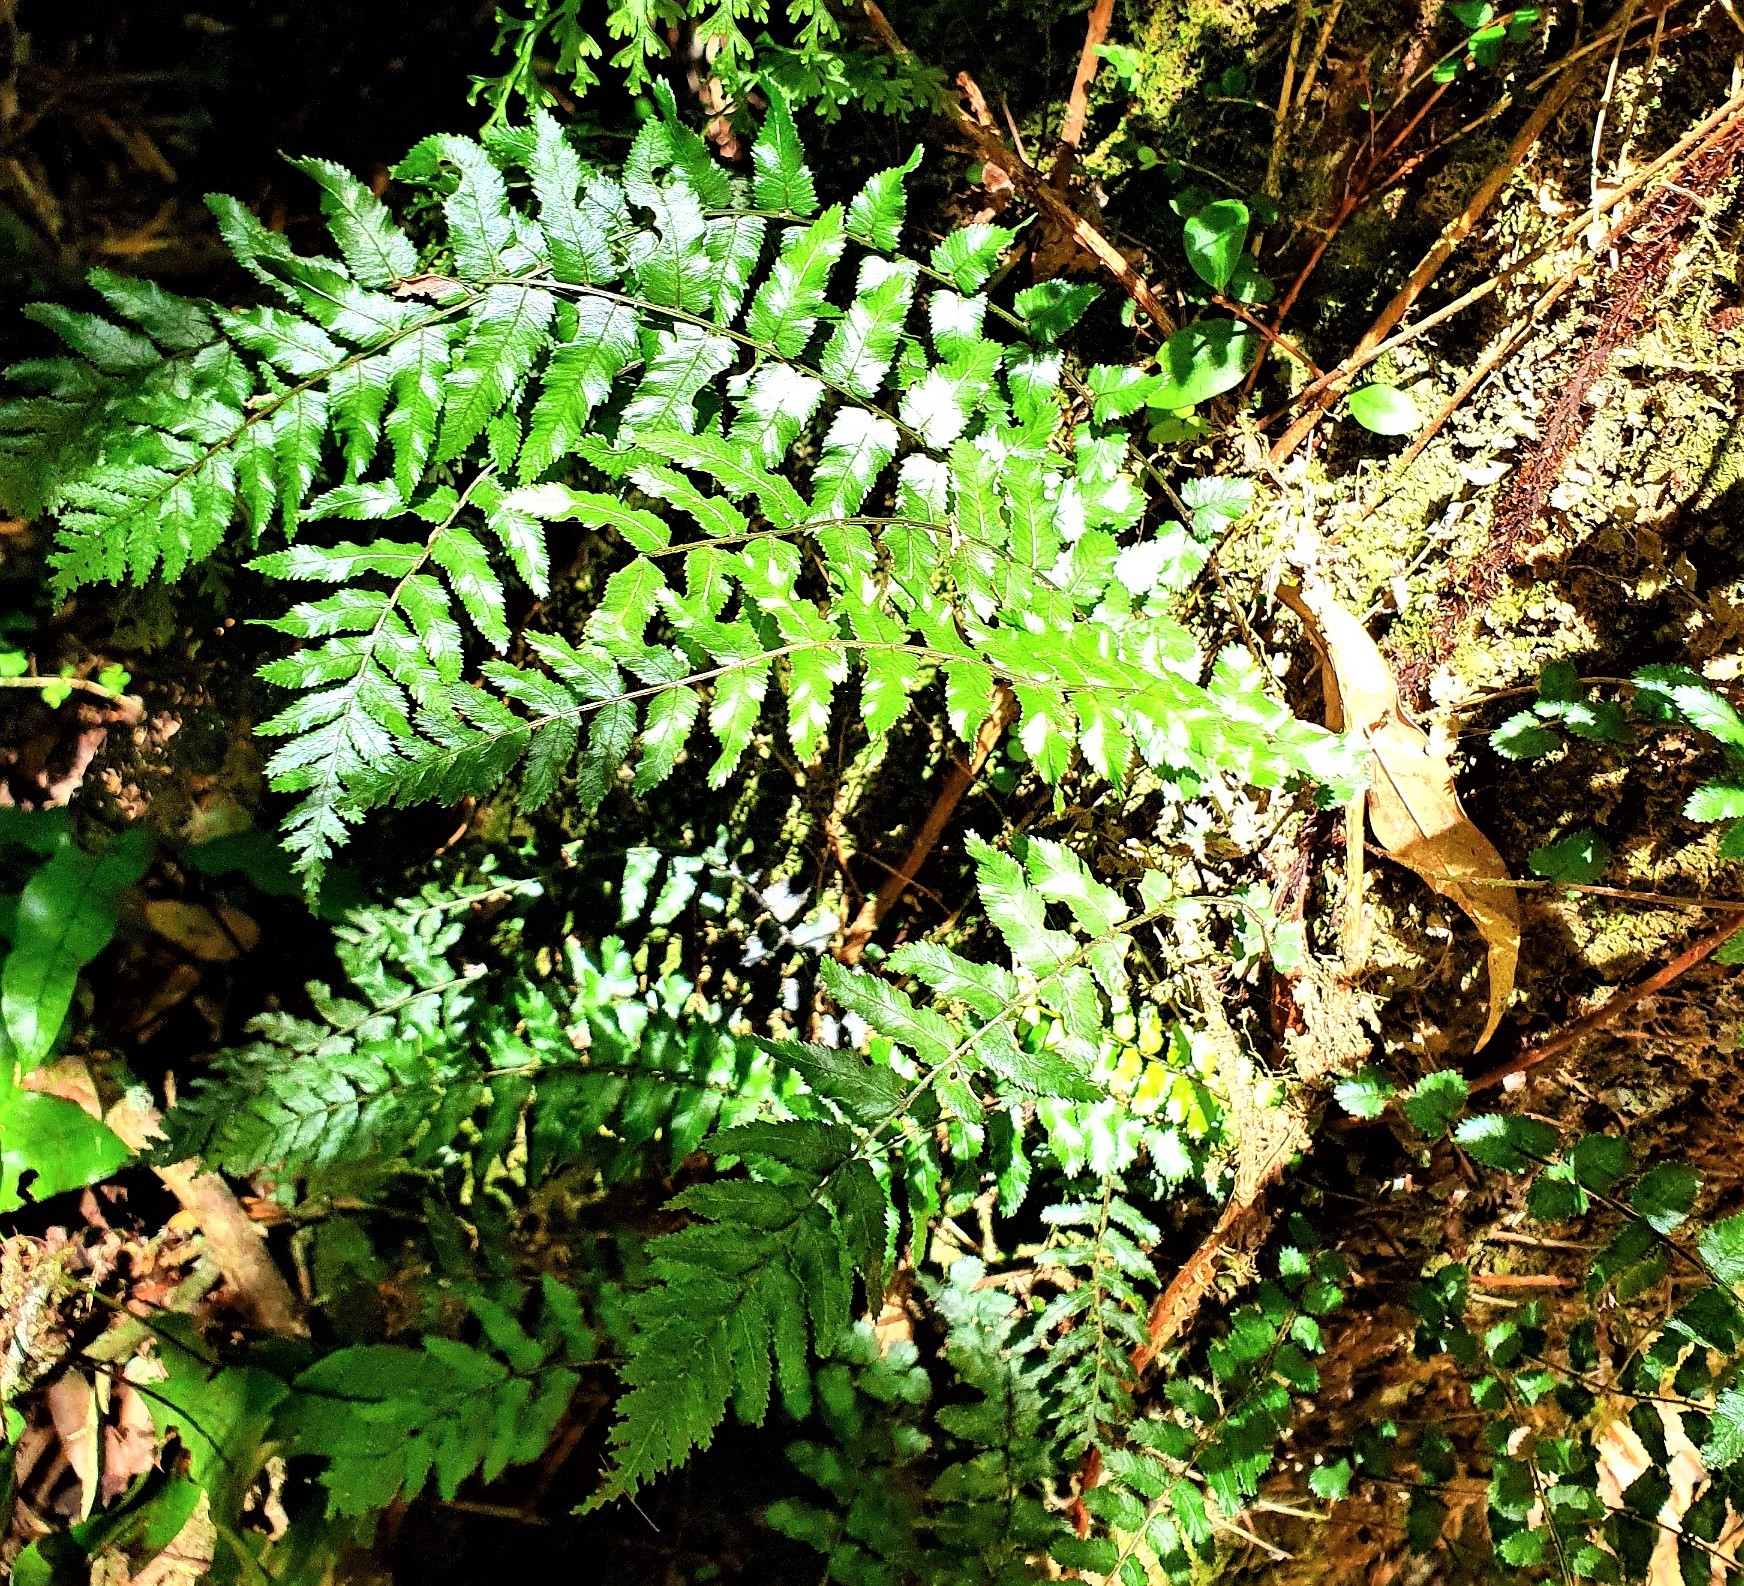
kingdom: Plantae
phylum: Tracheophyta
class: Polypodiopsida
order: Polypodiales
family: Blechnaceae
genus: Icarus
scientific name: Icarus filiformis
